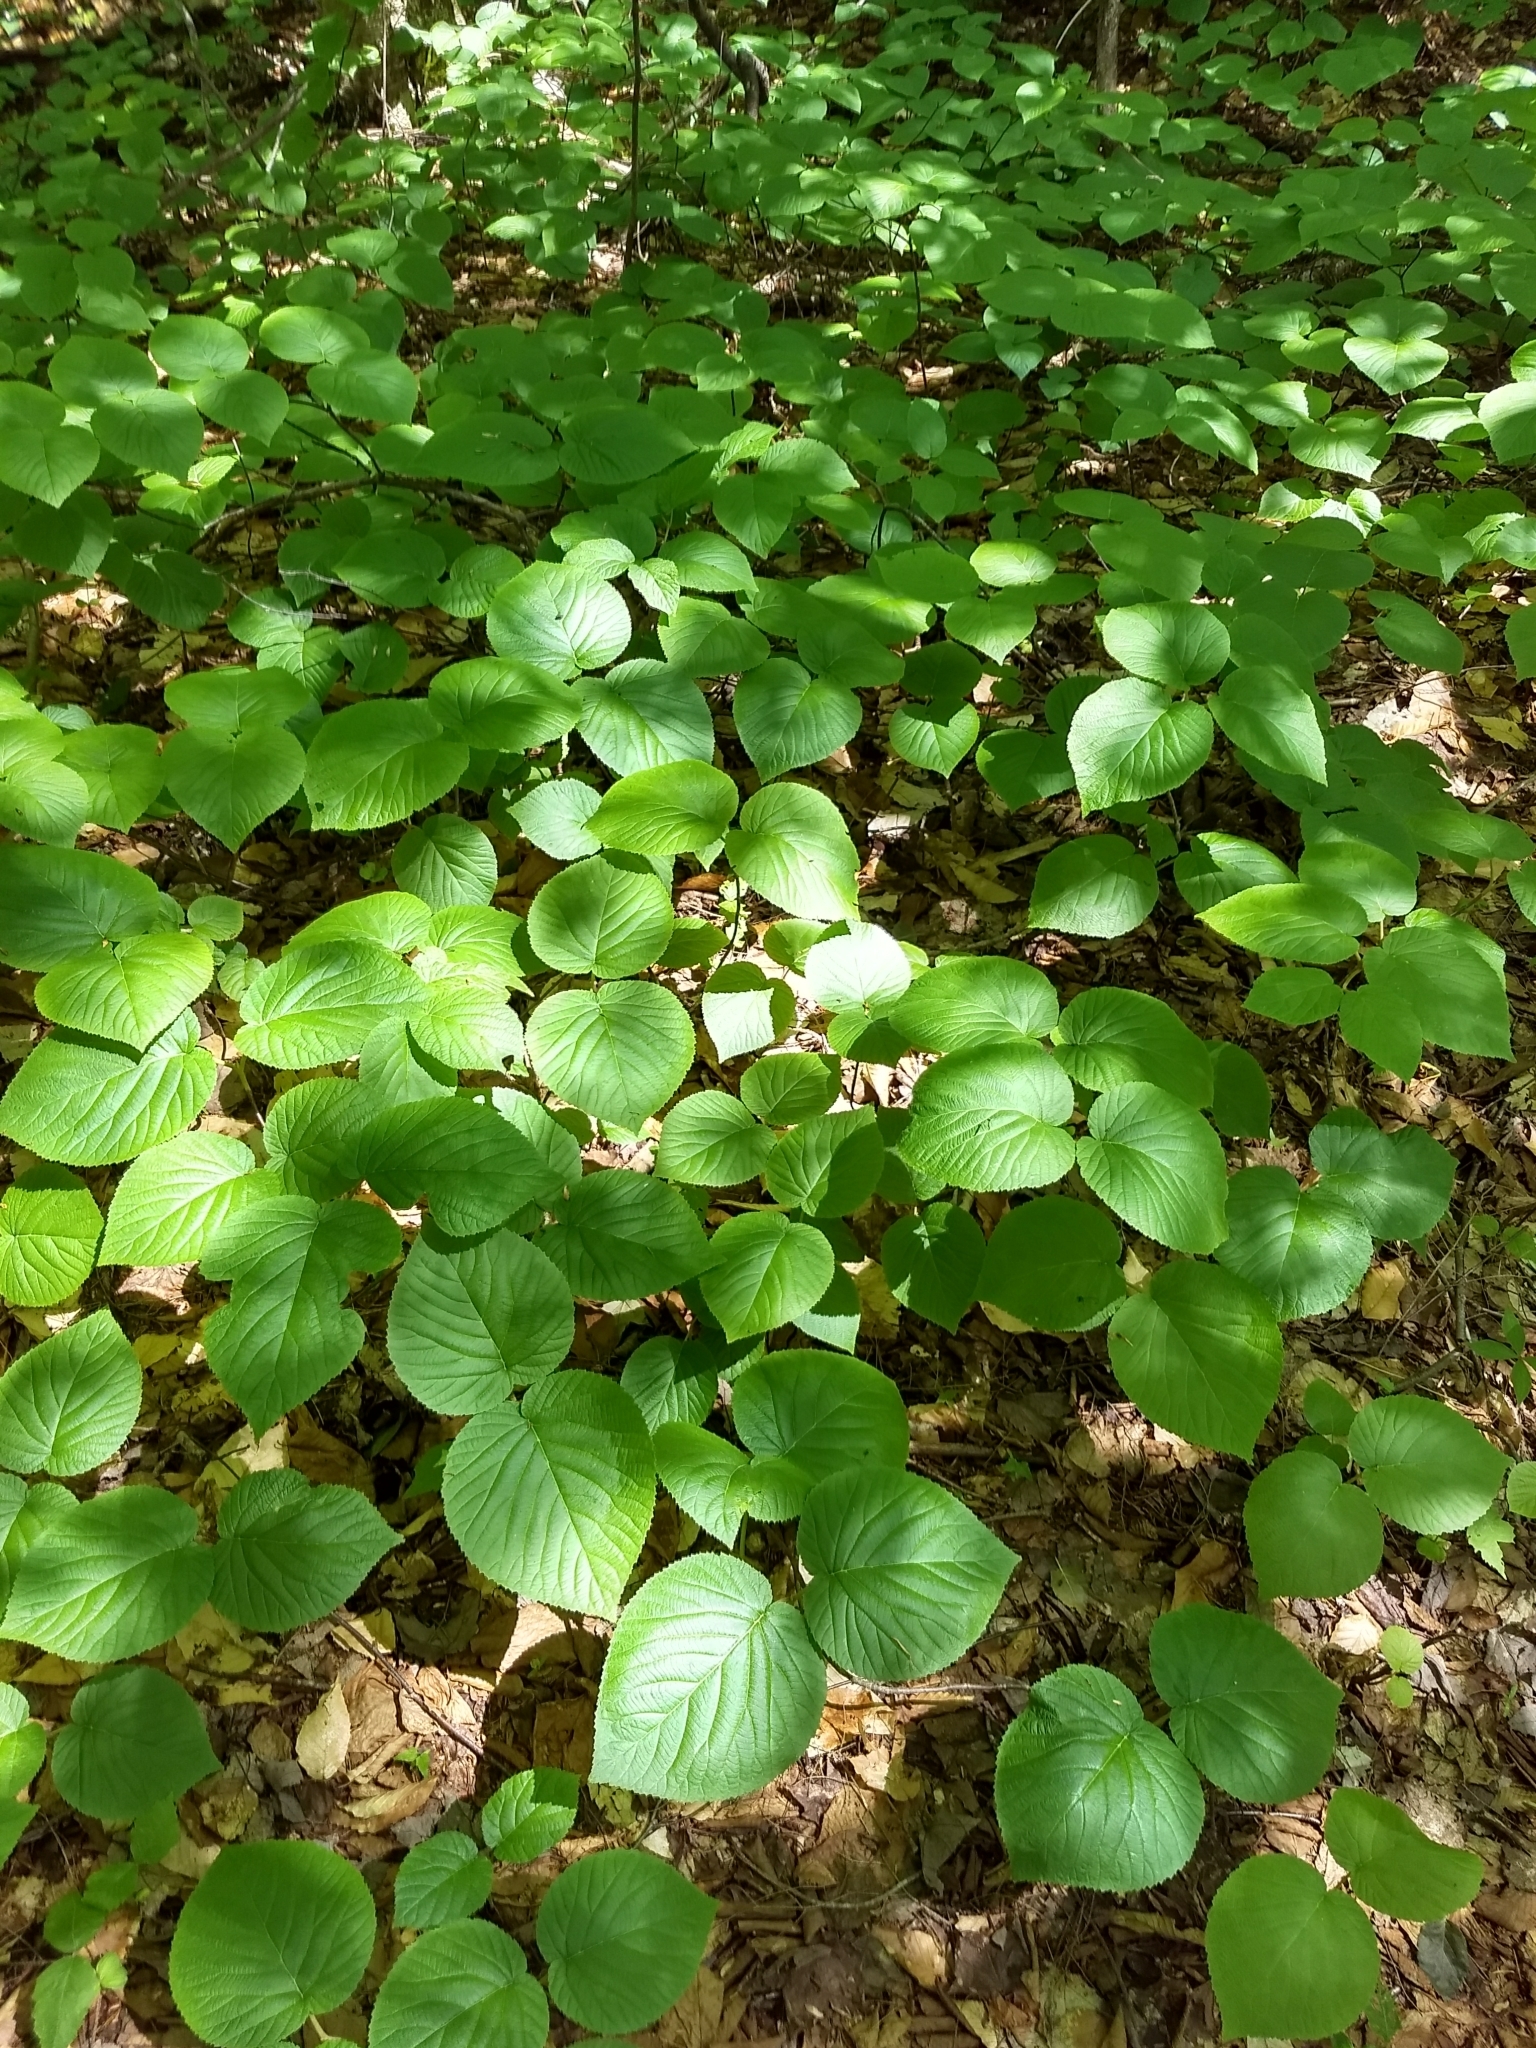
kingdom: Plantae
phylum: Tracheophyta
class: Magnoliopsida
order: Dipsacales
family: Viburnaceae
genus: Viburnum
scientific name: Viburnum lantanoides
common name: Hobblebush
